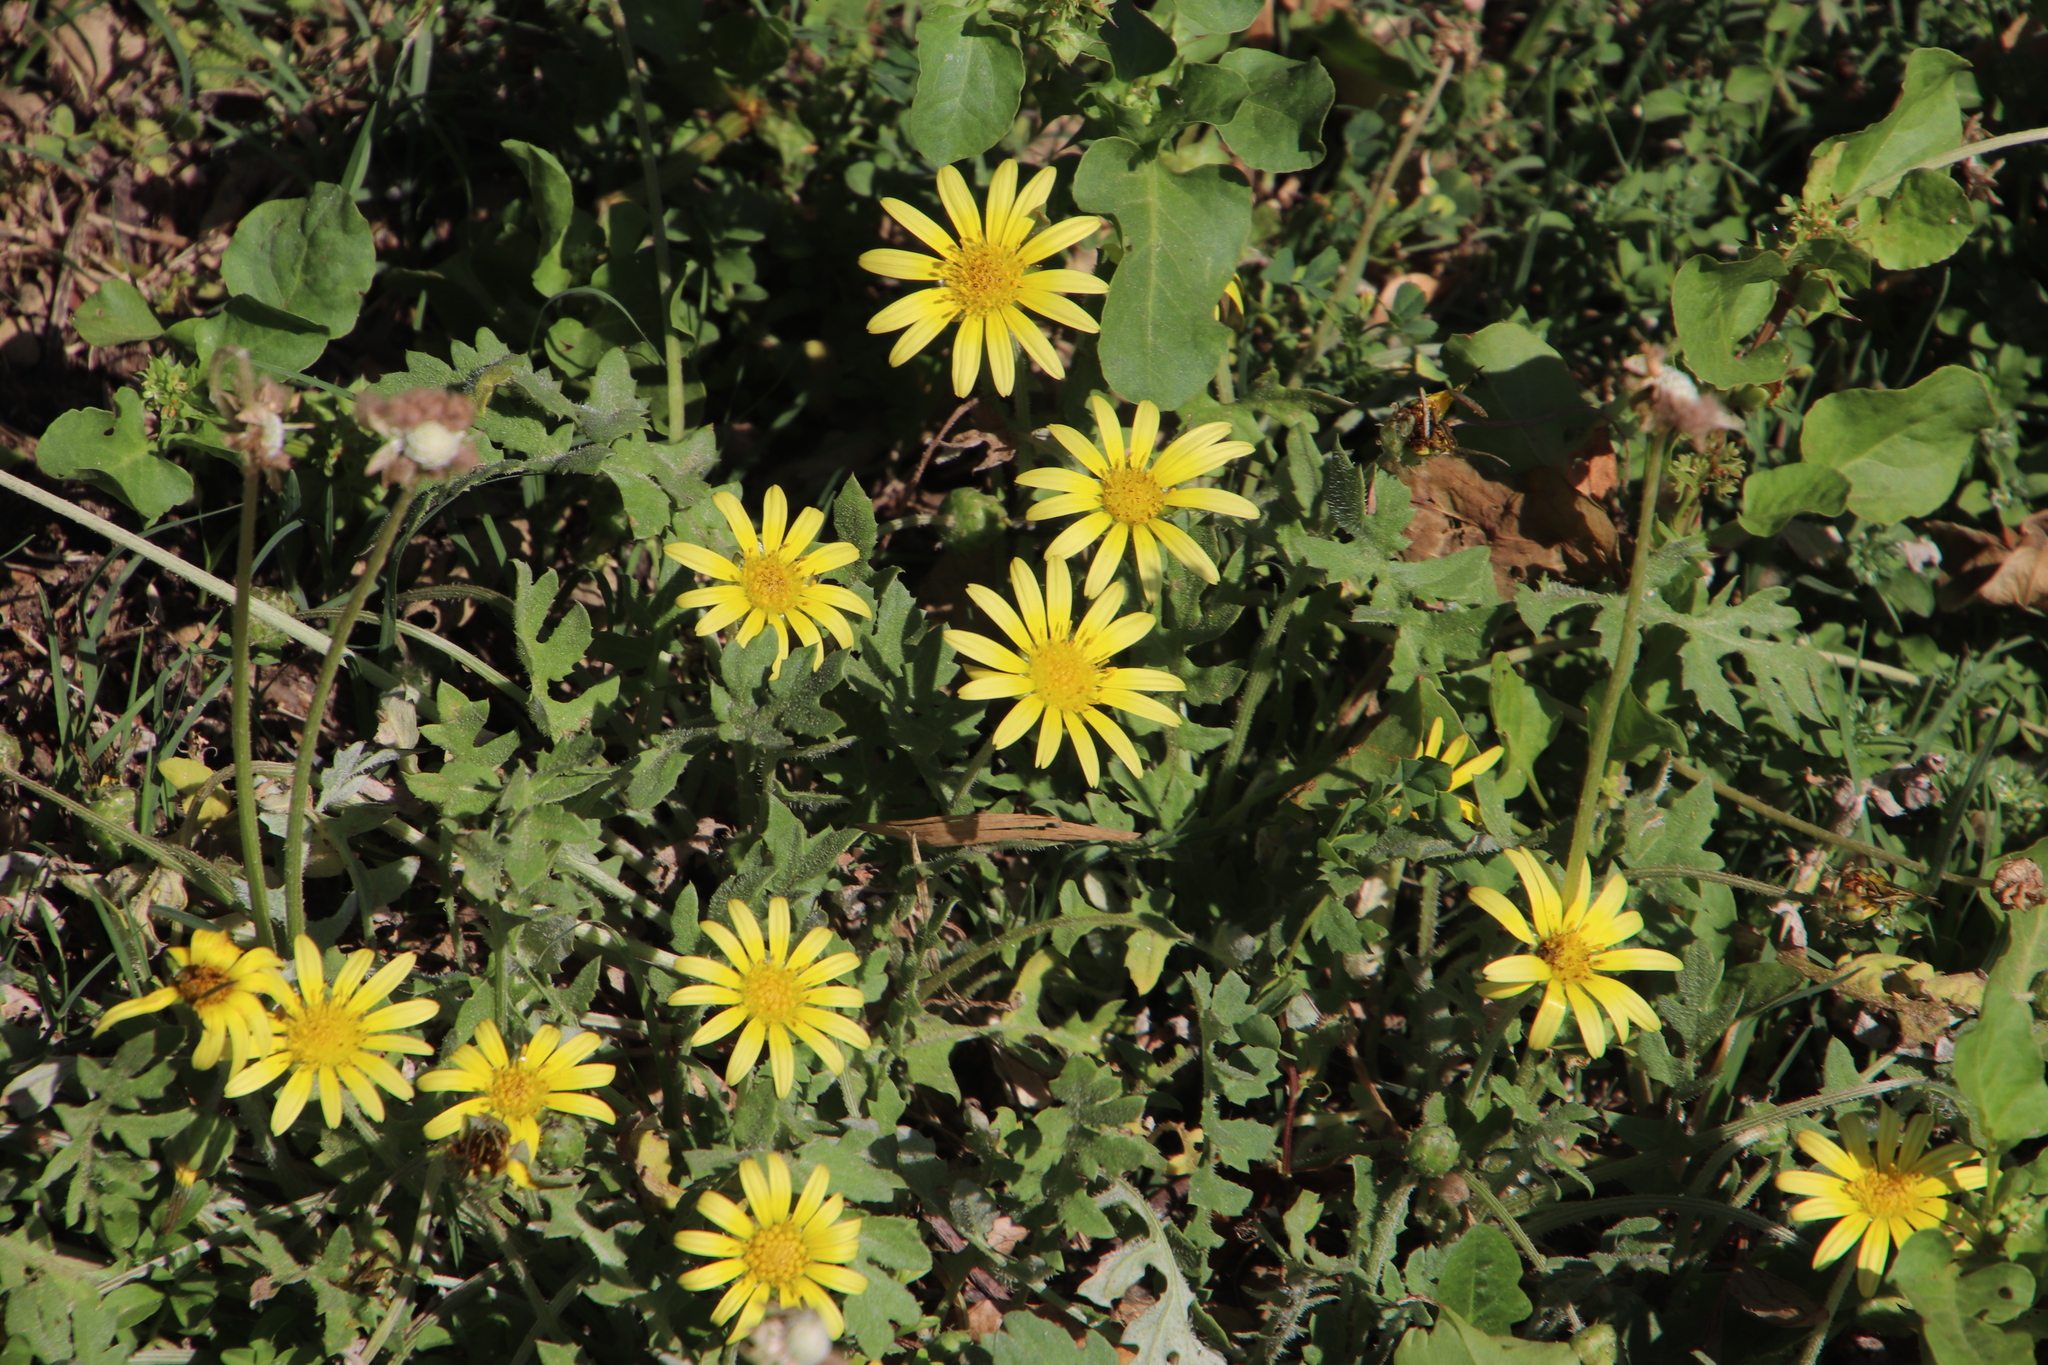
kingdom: Plantae
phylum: Tracheophyta
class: Magnoliopsida
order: Asterales
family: Asteraceae
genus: Arctotheca
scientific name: Arctotheca calendula
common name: Capeweed
